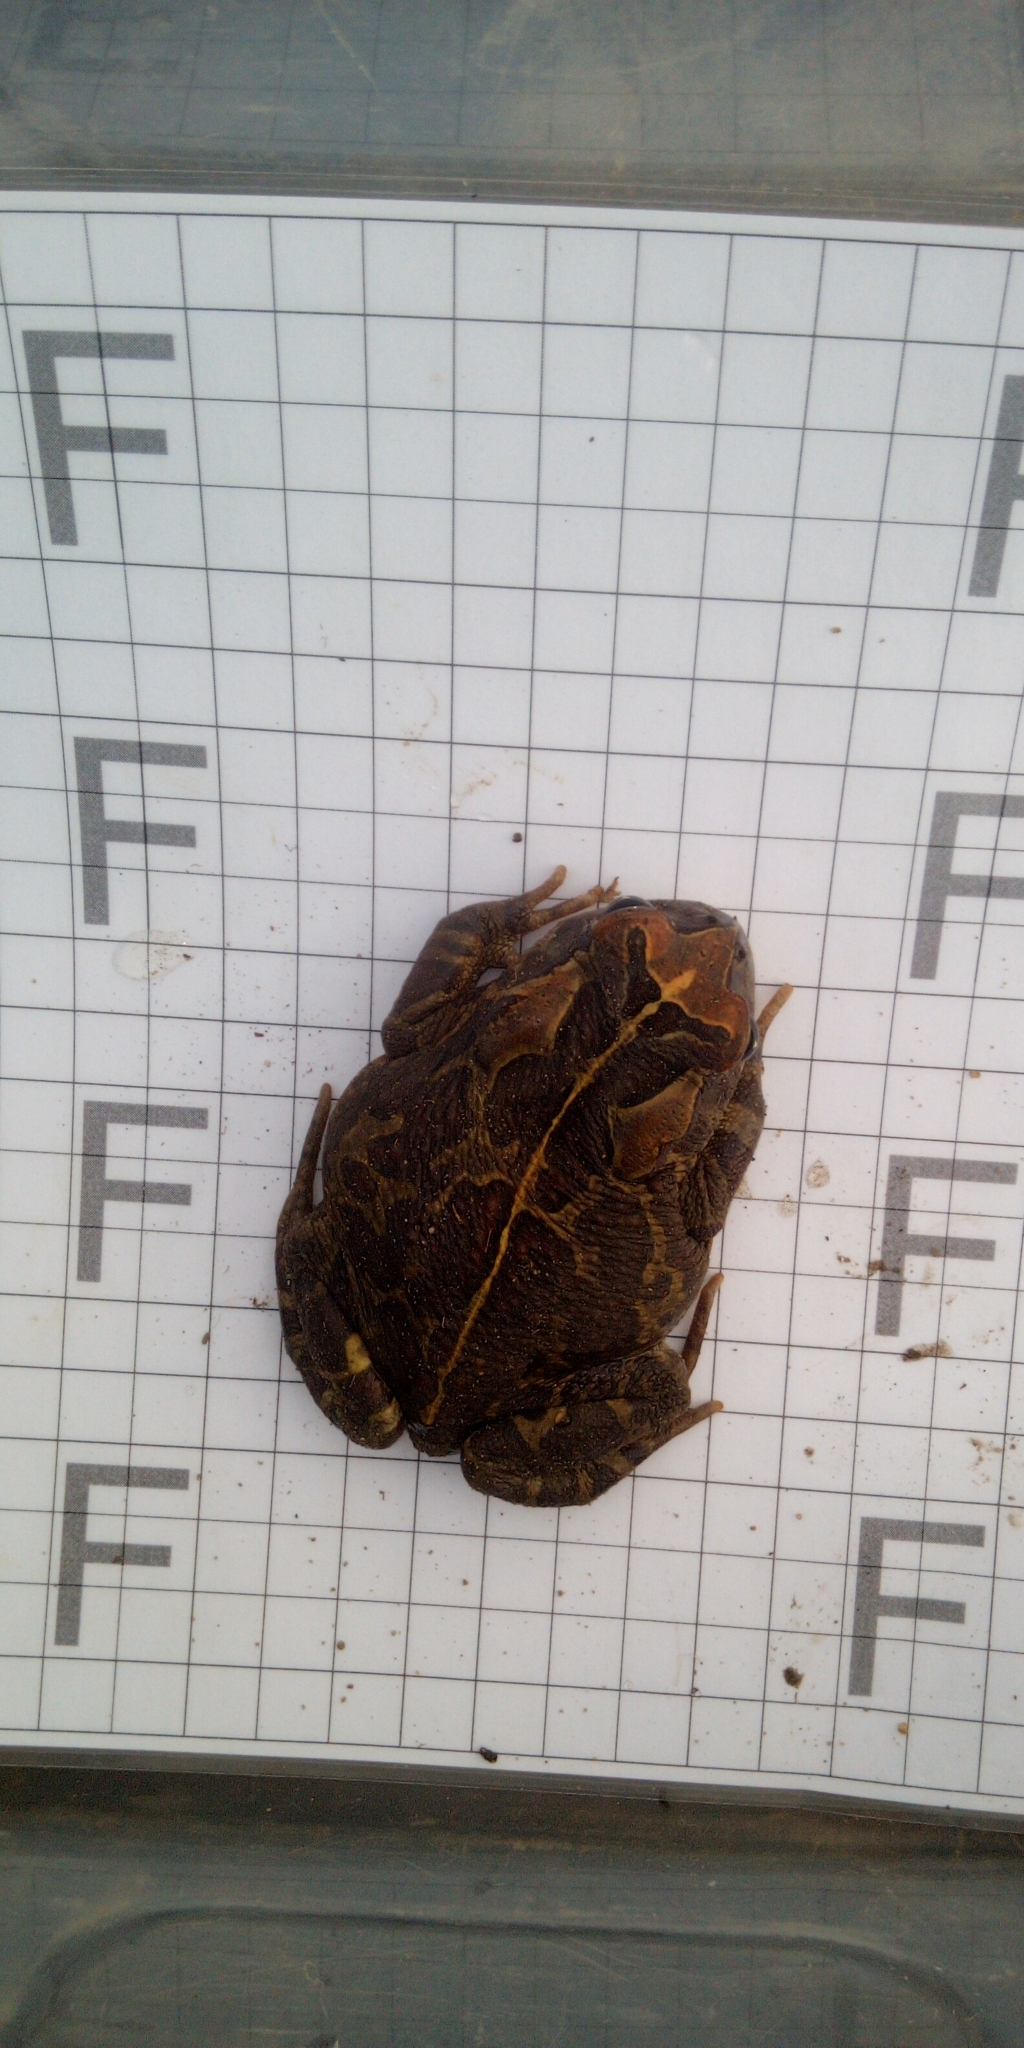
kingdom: Animalia
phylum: Chordata
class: Amphibia
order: Anura
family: Bufonidae
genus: Sclerophrys
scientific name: Sclerophrys pantherina
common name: Panther toad
